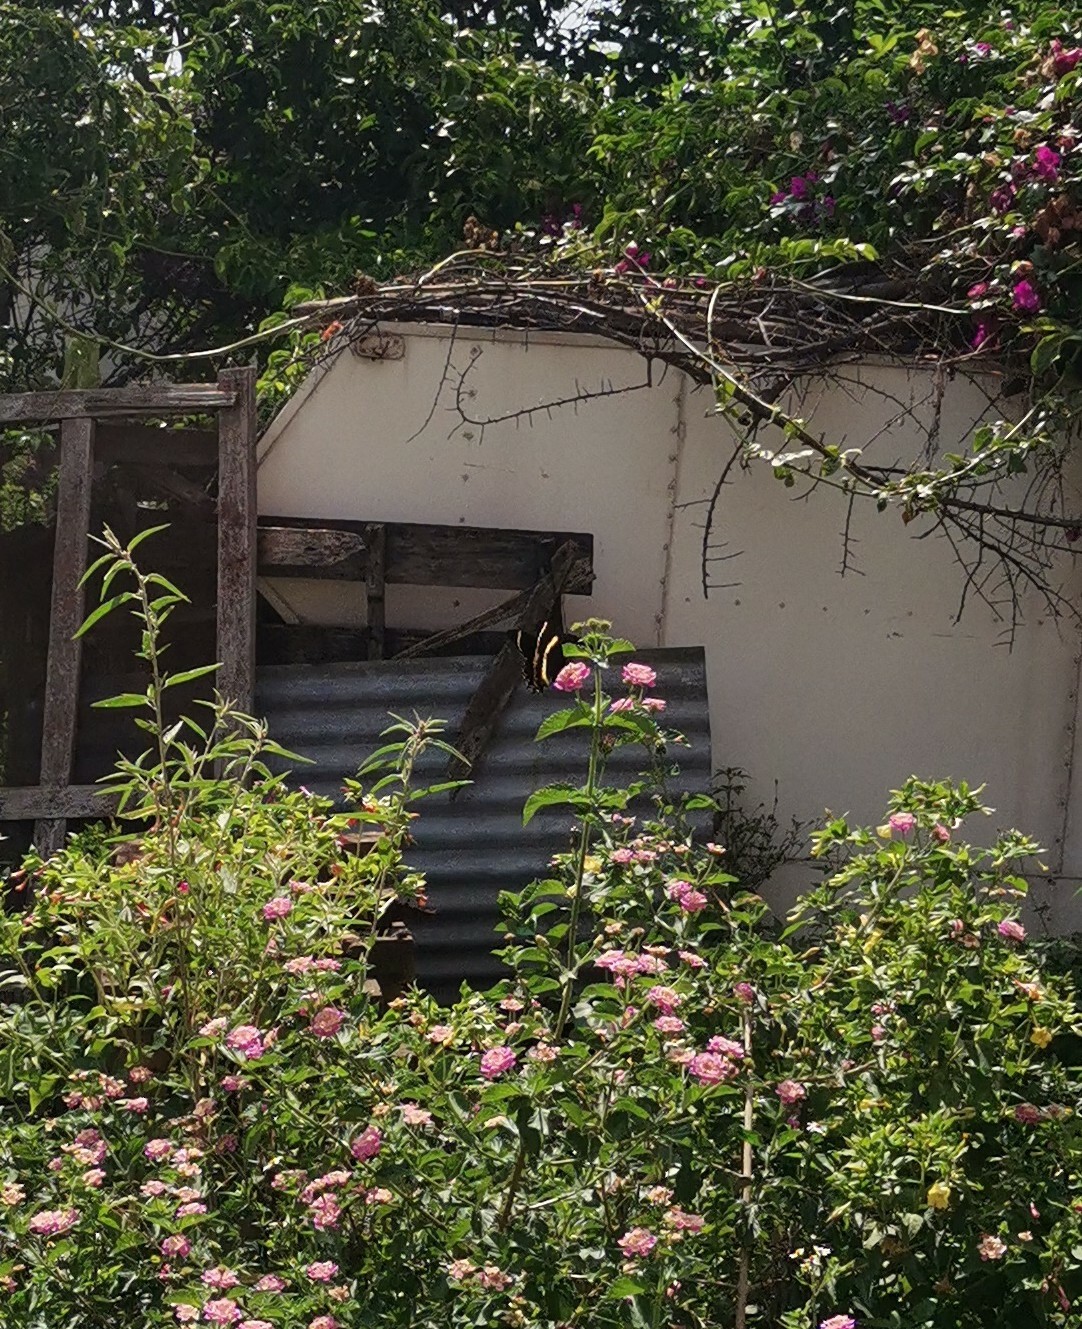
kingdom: Animalia
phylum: Arthropoda
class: Insecta
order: Lepidoptera
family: Papilionidae
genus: Papilio
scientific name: Papilio garamas
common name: Magnificent swallowtail
